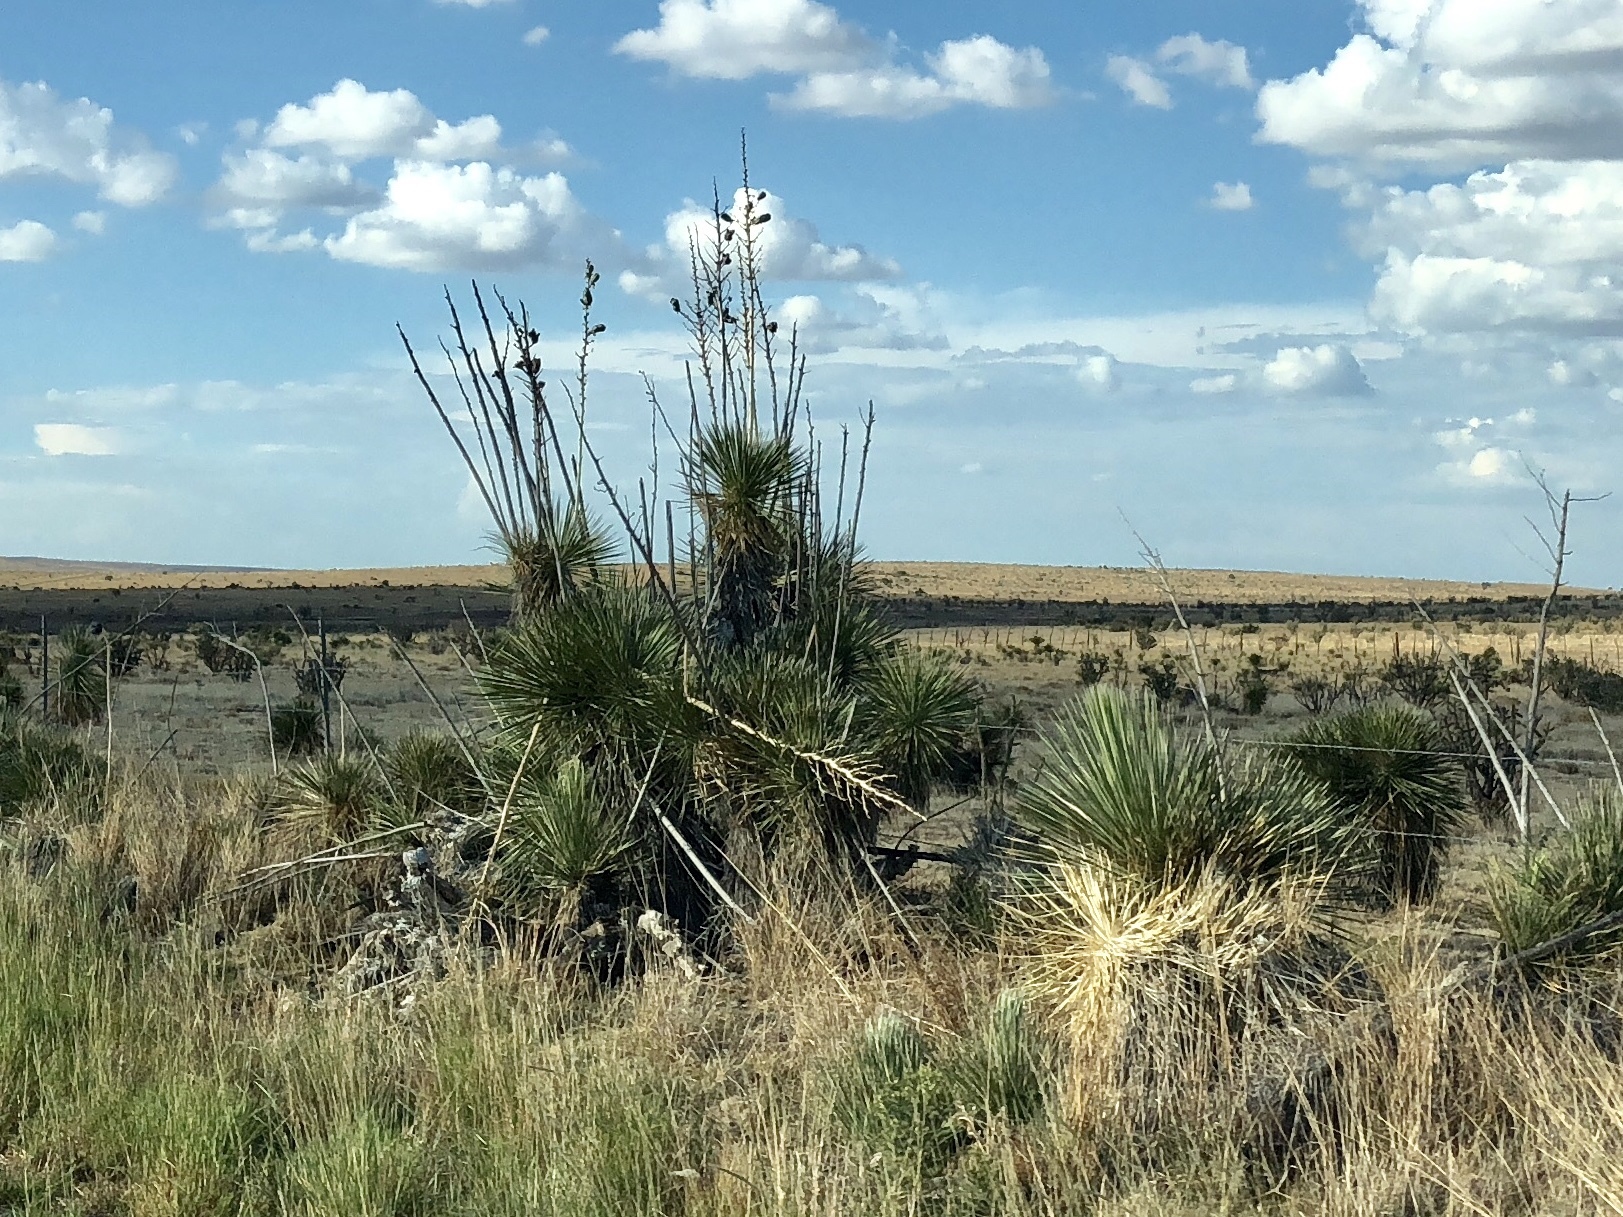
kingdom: Plantae
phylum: Tracheophyta
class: Liliopsida
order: Asparagales
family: Asparagaceae
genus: Yucca
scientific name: Yucca elata
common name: Palmella
